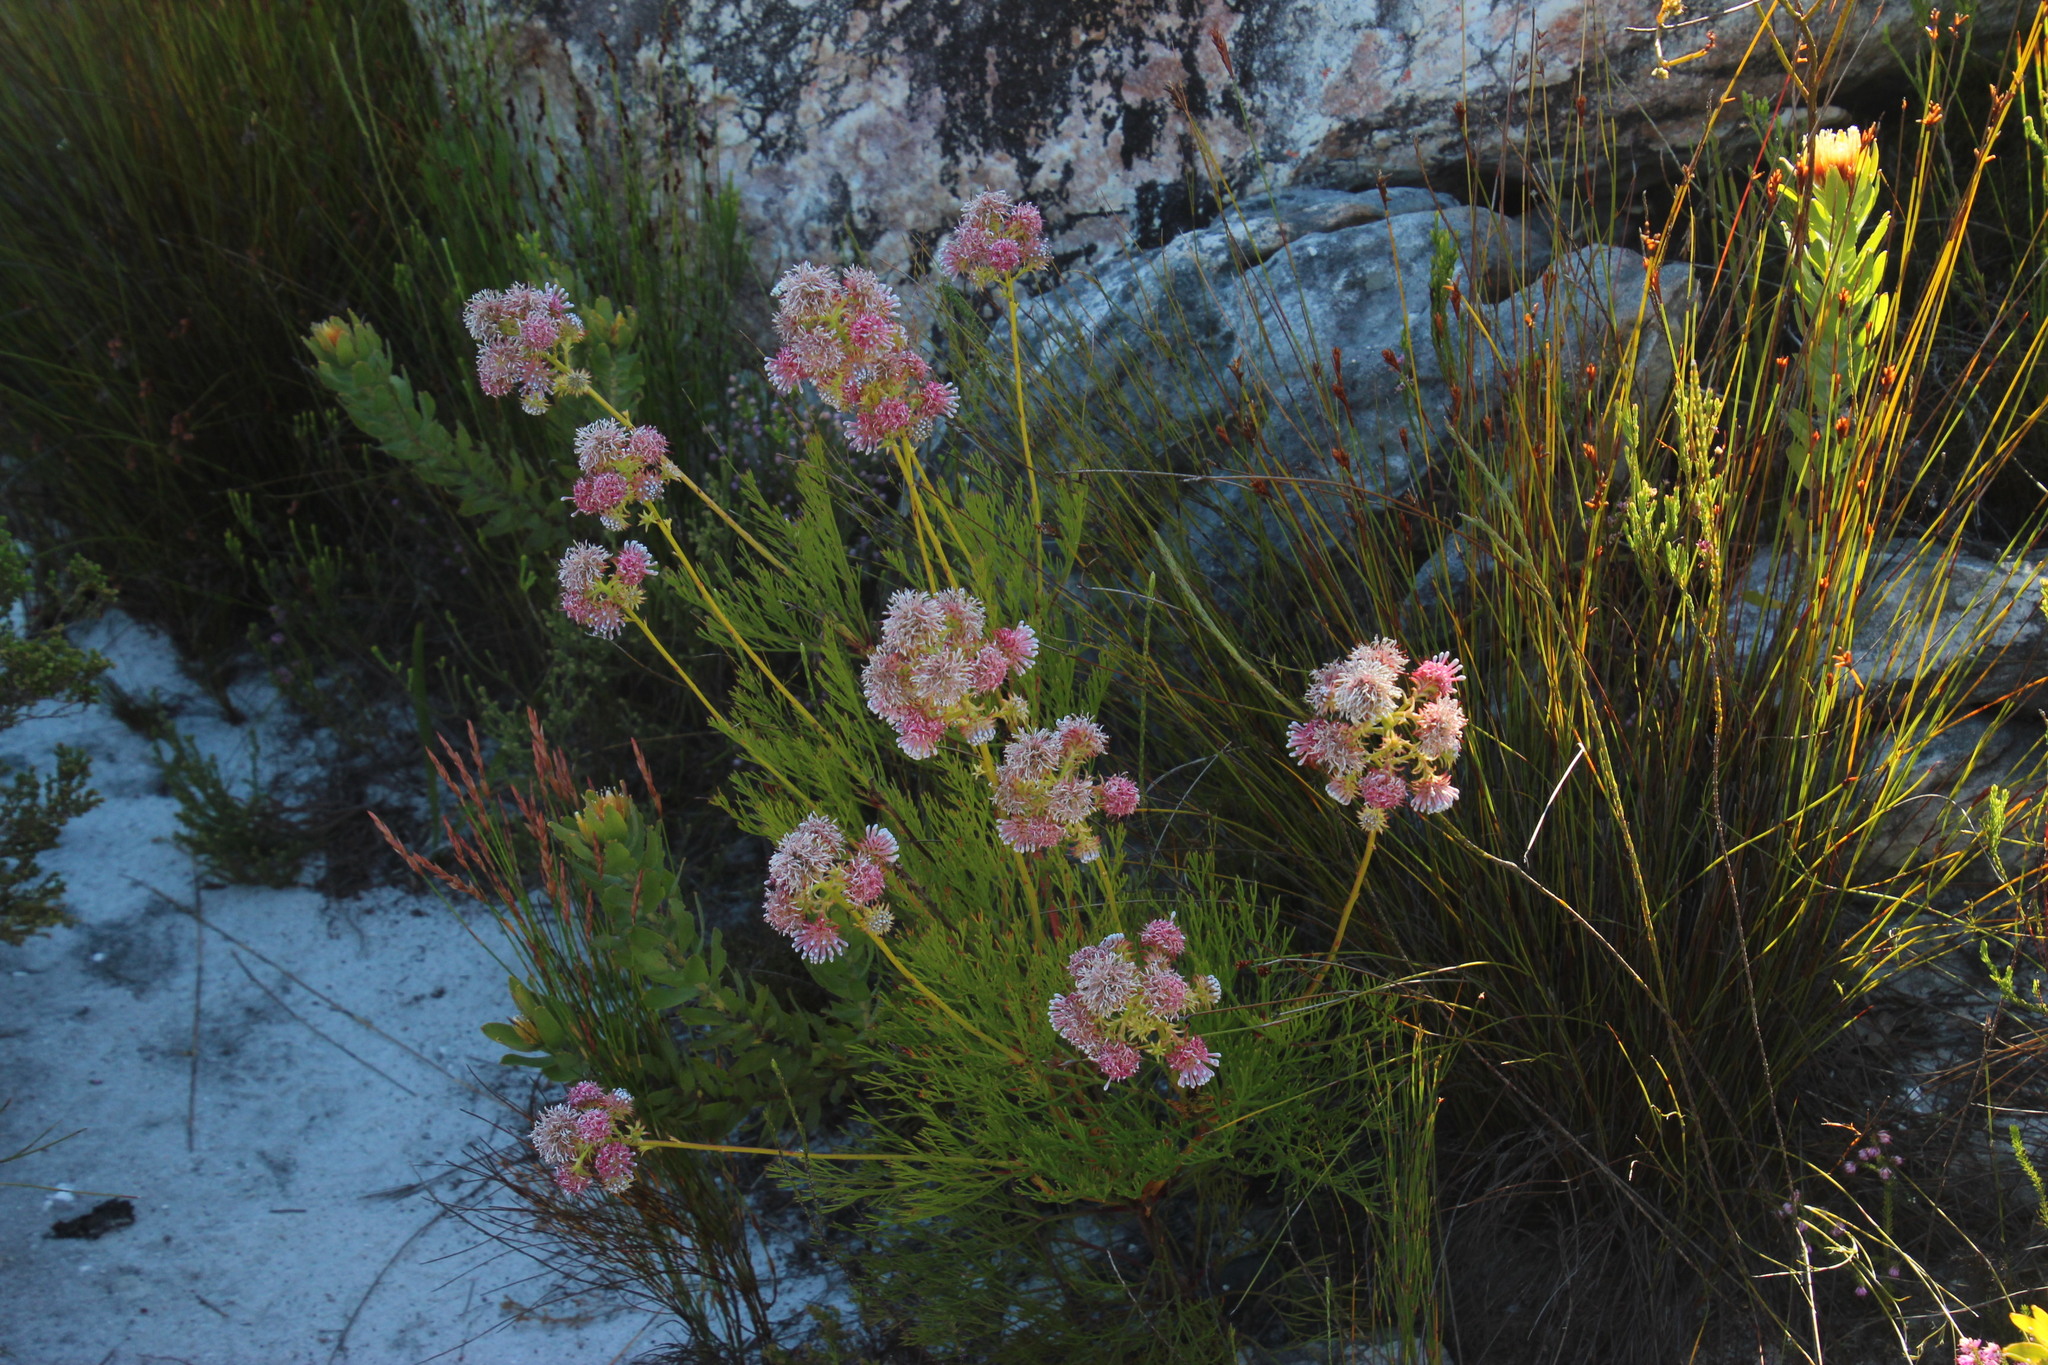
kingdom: Plantae
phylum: Tracheophyta
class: Magnoliopsida
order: Proteales
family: Proteaceae
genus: Serruria
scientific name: Serruria elongata
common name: Long-stalk spiderhead
